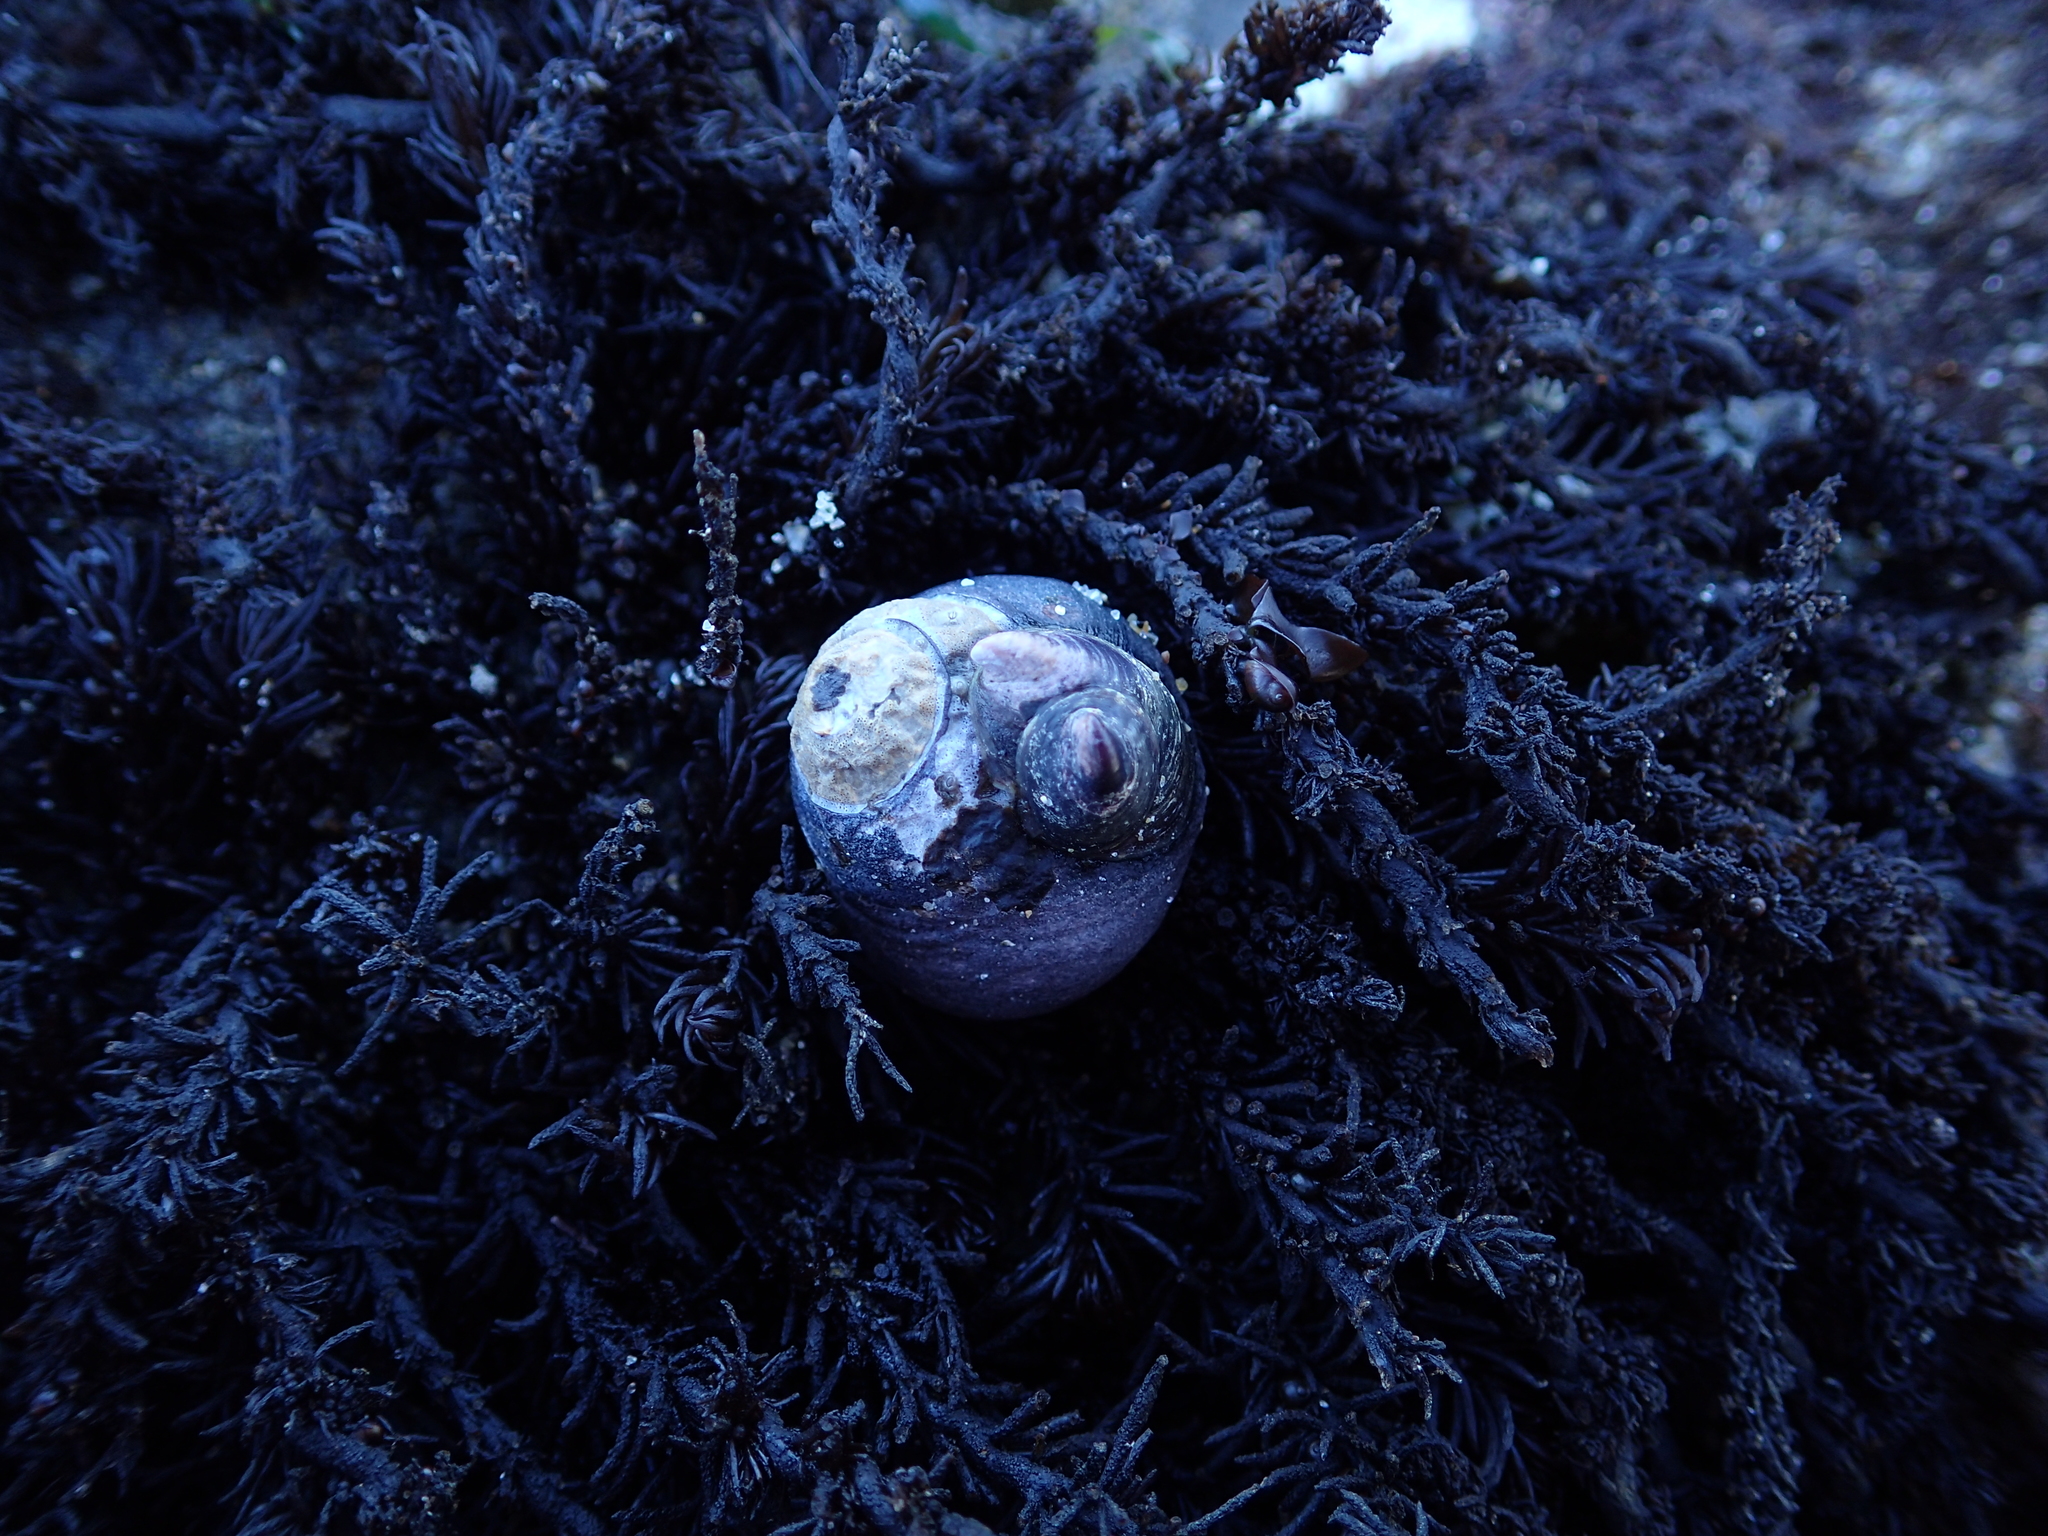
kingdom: Animalia
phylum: Mollusca
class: Gastropoda
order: Littorinimorpha
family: Calyptraeidae
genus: Crepidula
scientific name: Crepidula adunca
